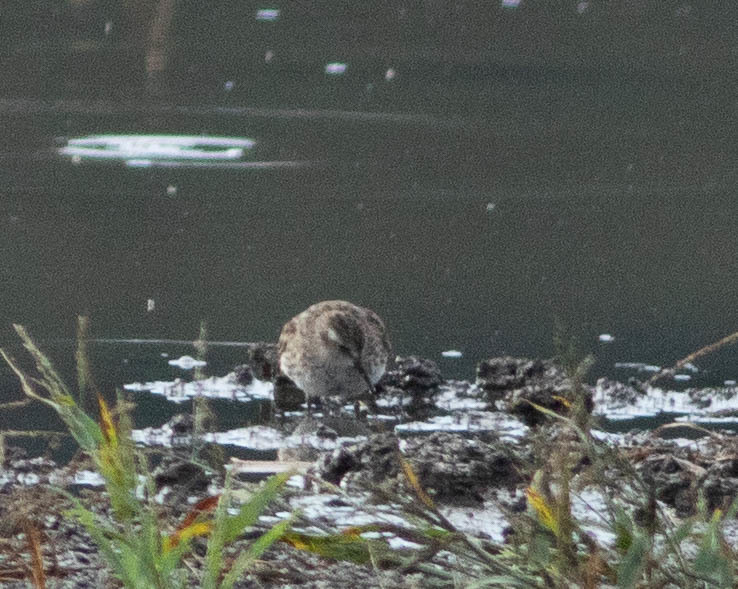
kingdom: Animalia
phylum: Chordata
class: Aves
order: Charadriiformes
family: Scolopacidae
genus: Calidris
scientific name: Calidris minutilla
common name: Least sandpiper
